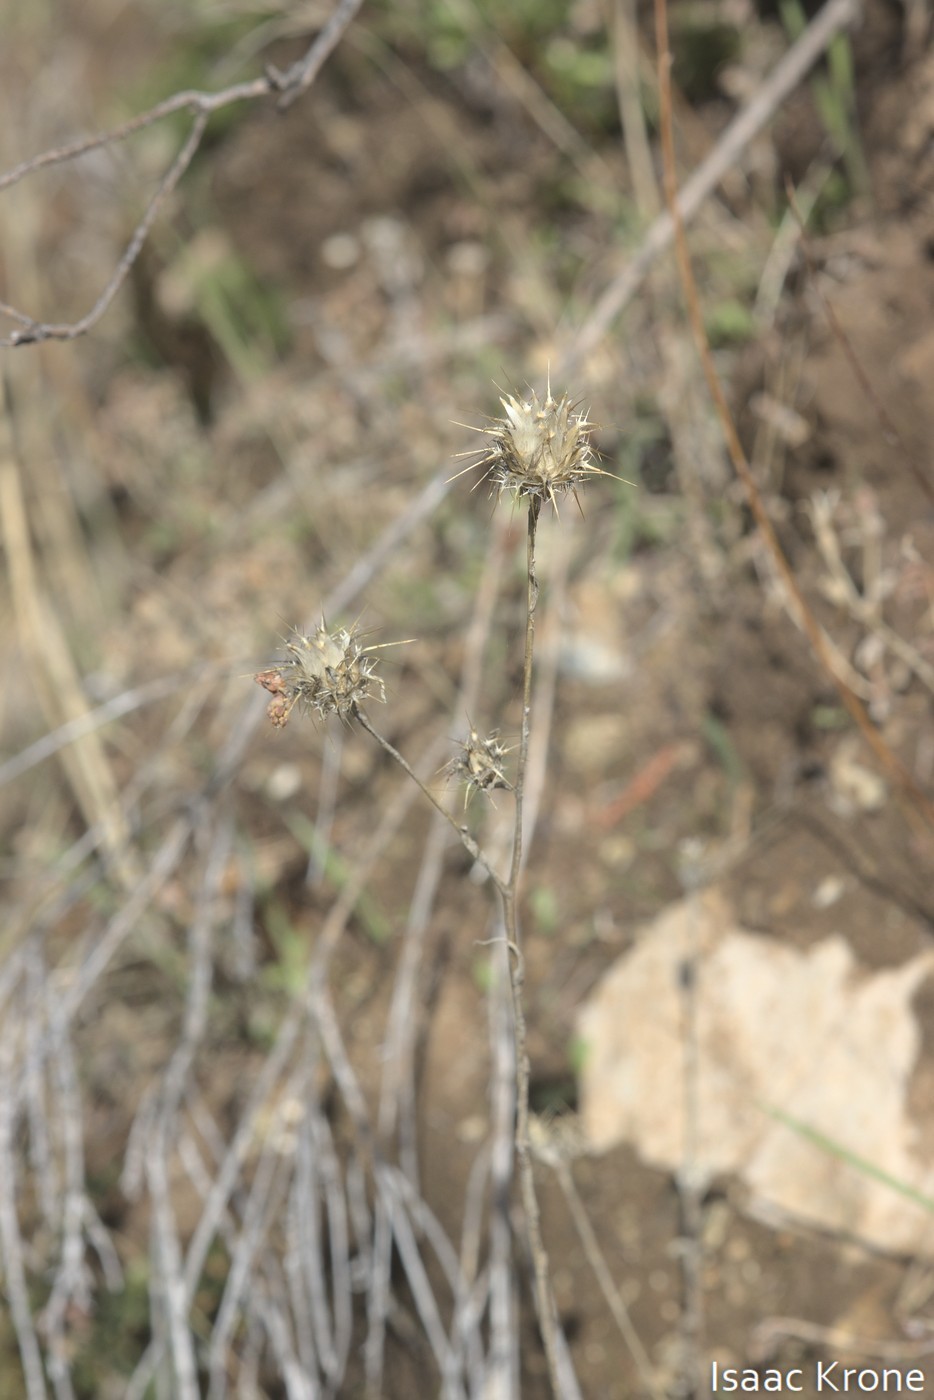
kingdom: Plantae
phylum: Tracheophyta
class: Magnoliopsida
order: Asterales
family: Asteraceae
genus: Centaurea
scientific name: Centaurea melitensis
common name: Maltese star-thistle
